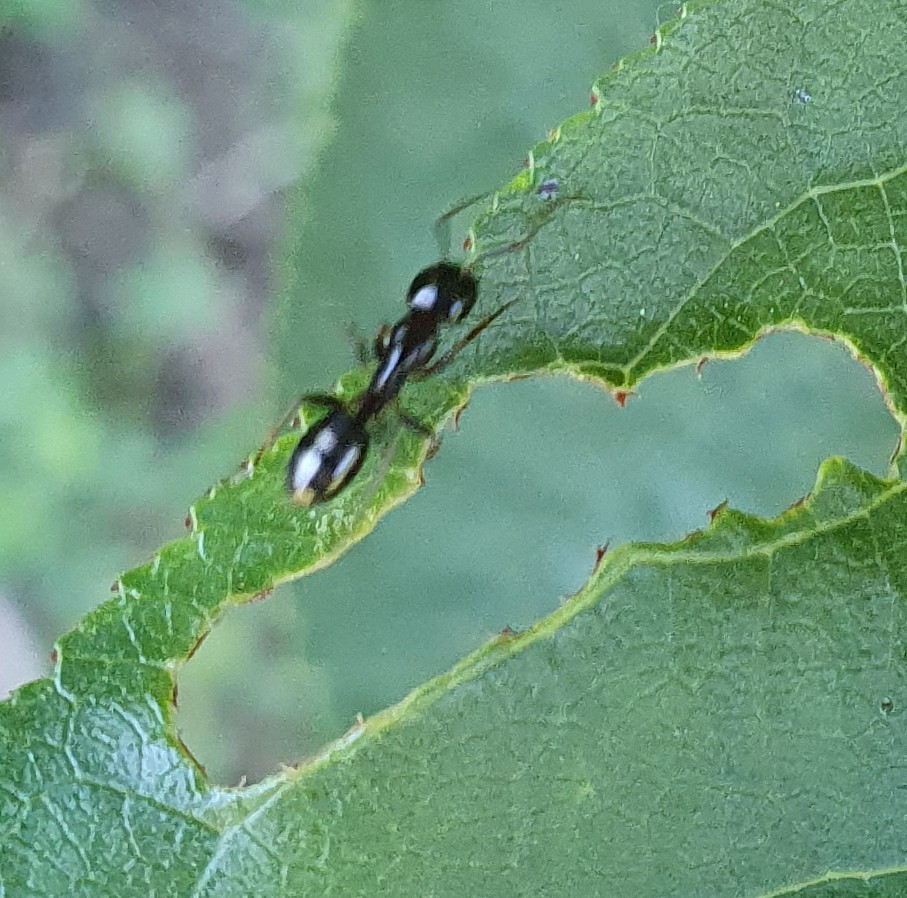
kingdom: Animalia
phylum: Arthropoda
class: Insecta
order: Hymenoptera
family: Formicidae
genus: Camponotus
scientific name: Camponotus fallax
